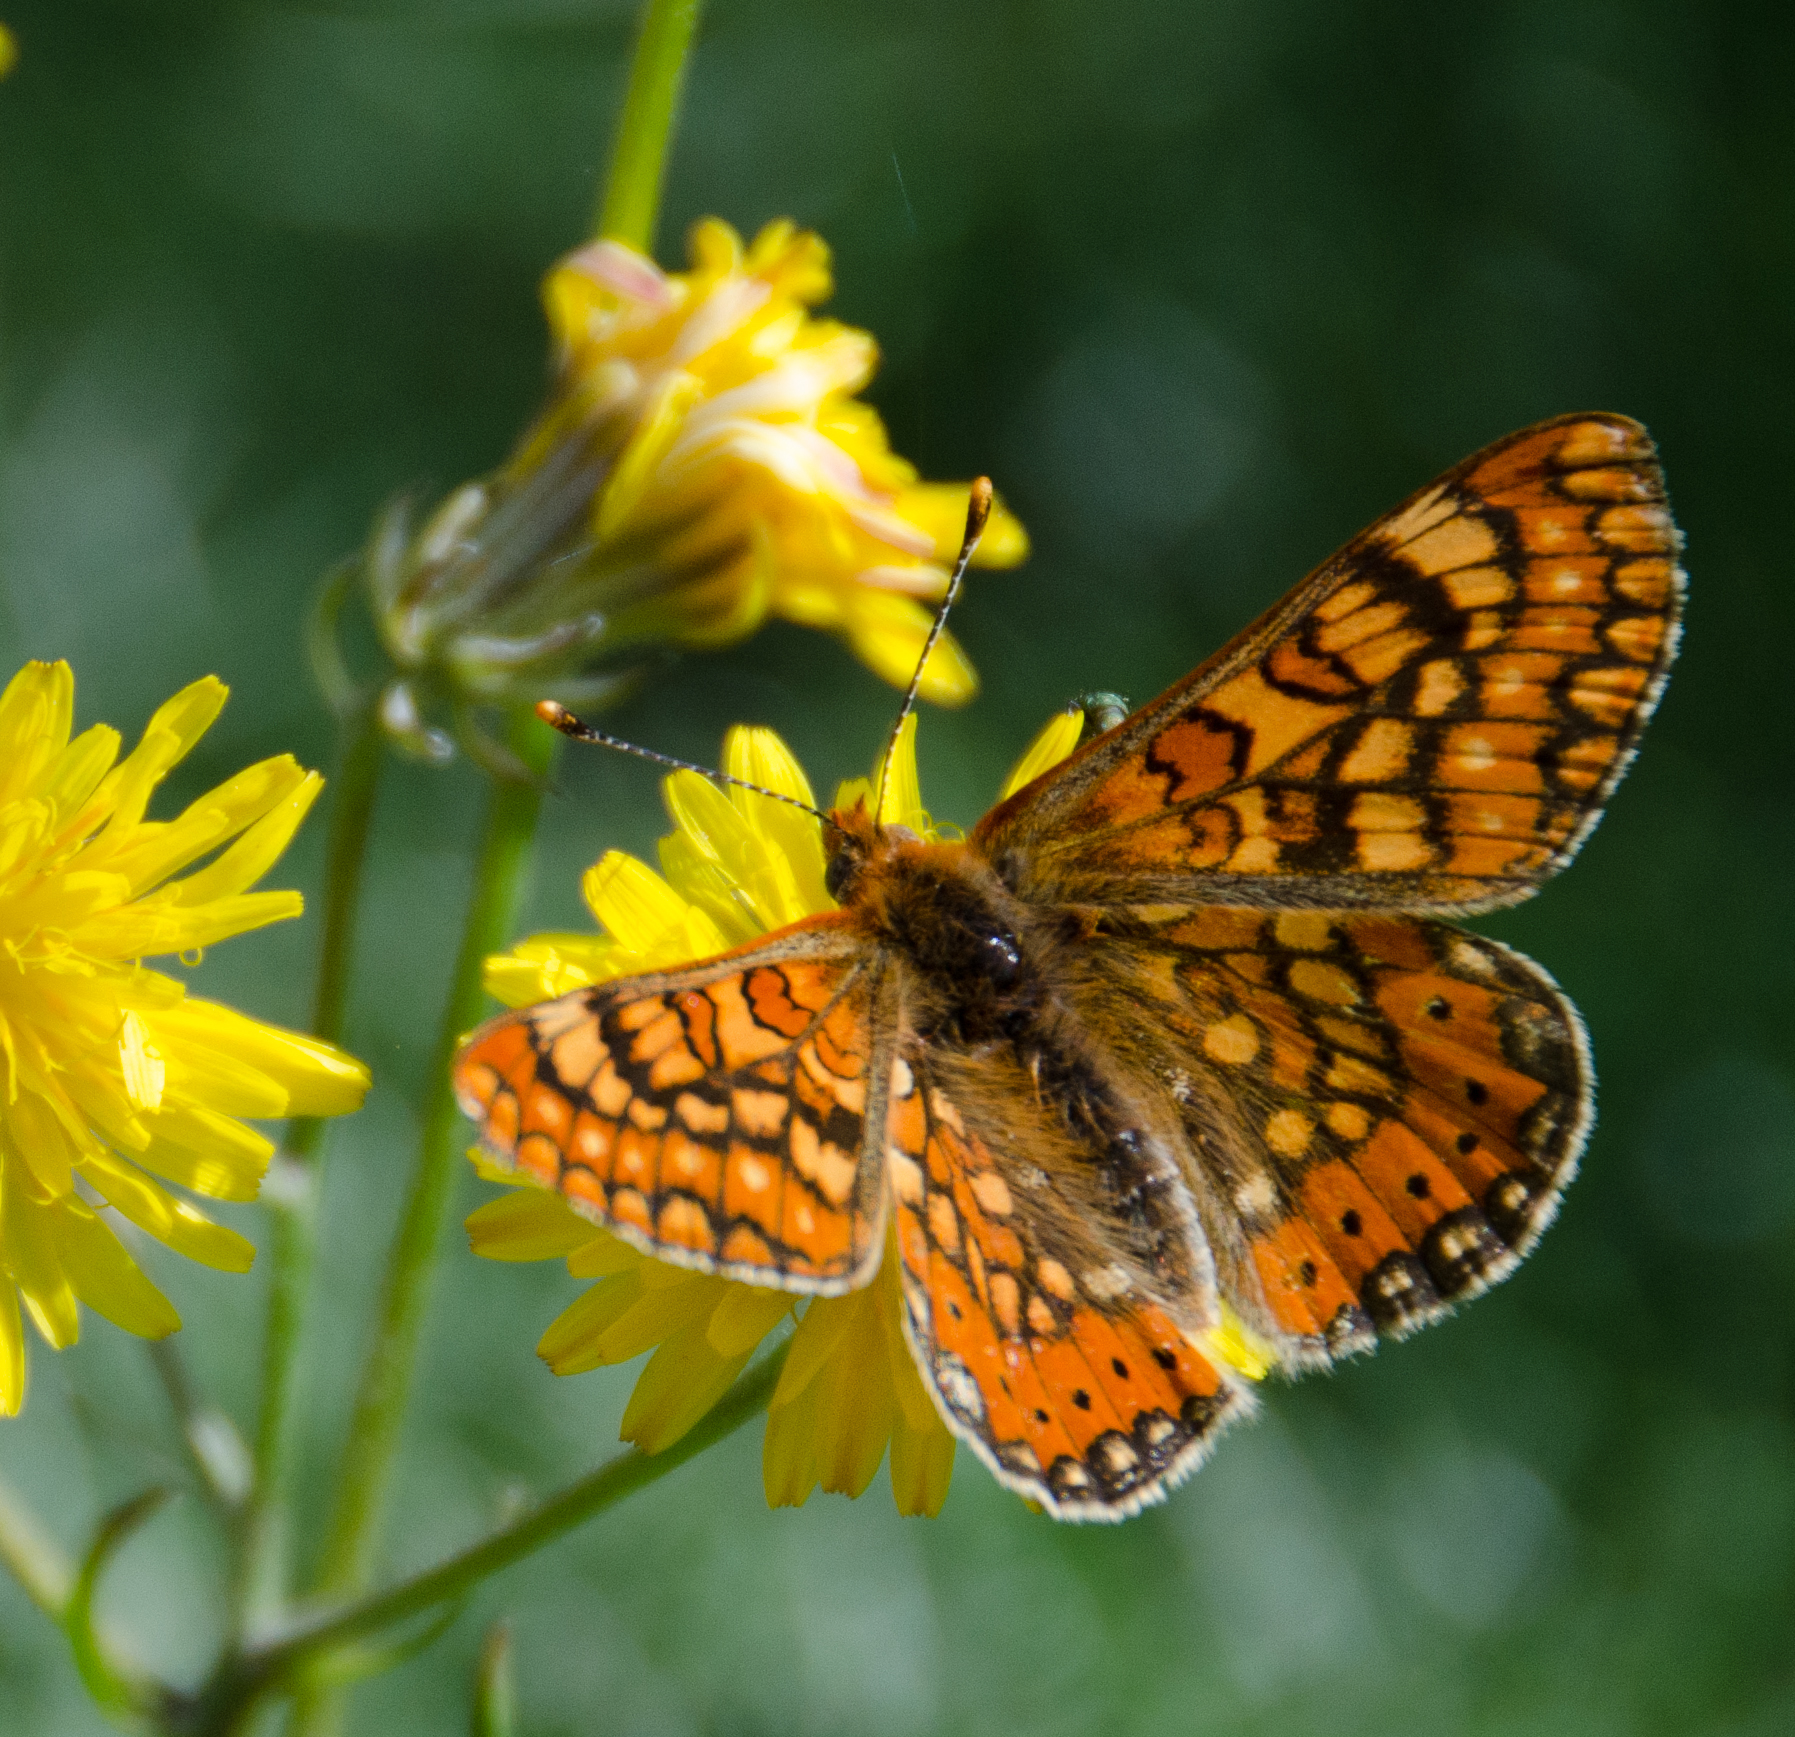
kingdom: Animalia
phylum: Arthropoda
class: Insecta
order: Lepidoptera
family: Nymphalidae
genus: Euphydryas
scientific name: Euphydryas aurinia
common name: Marsh fritillary
